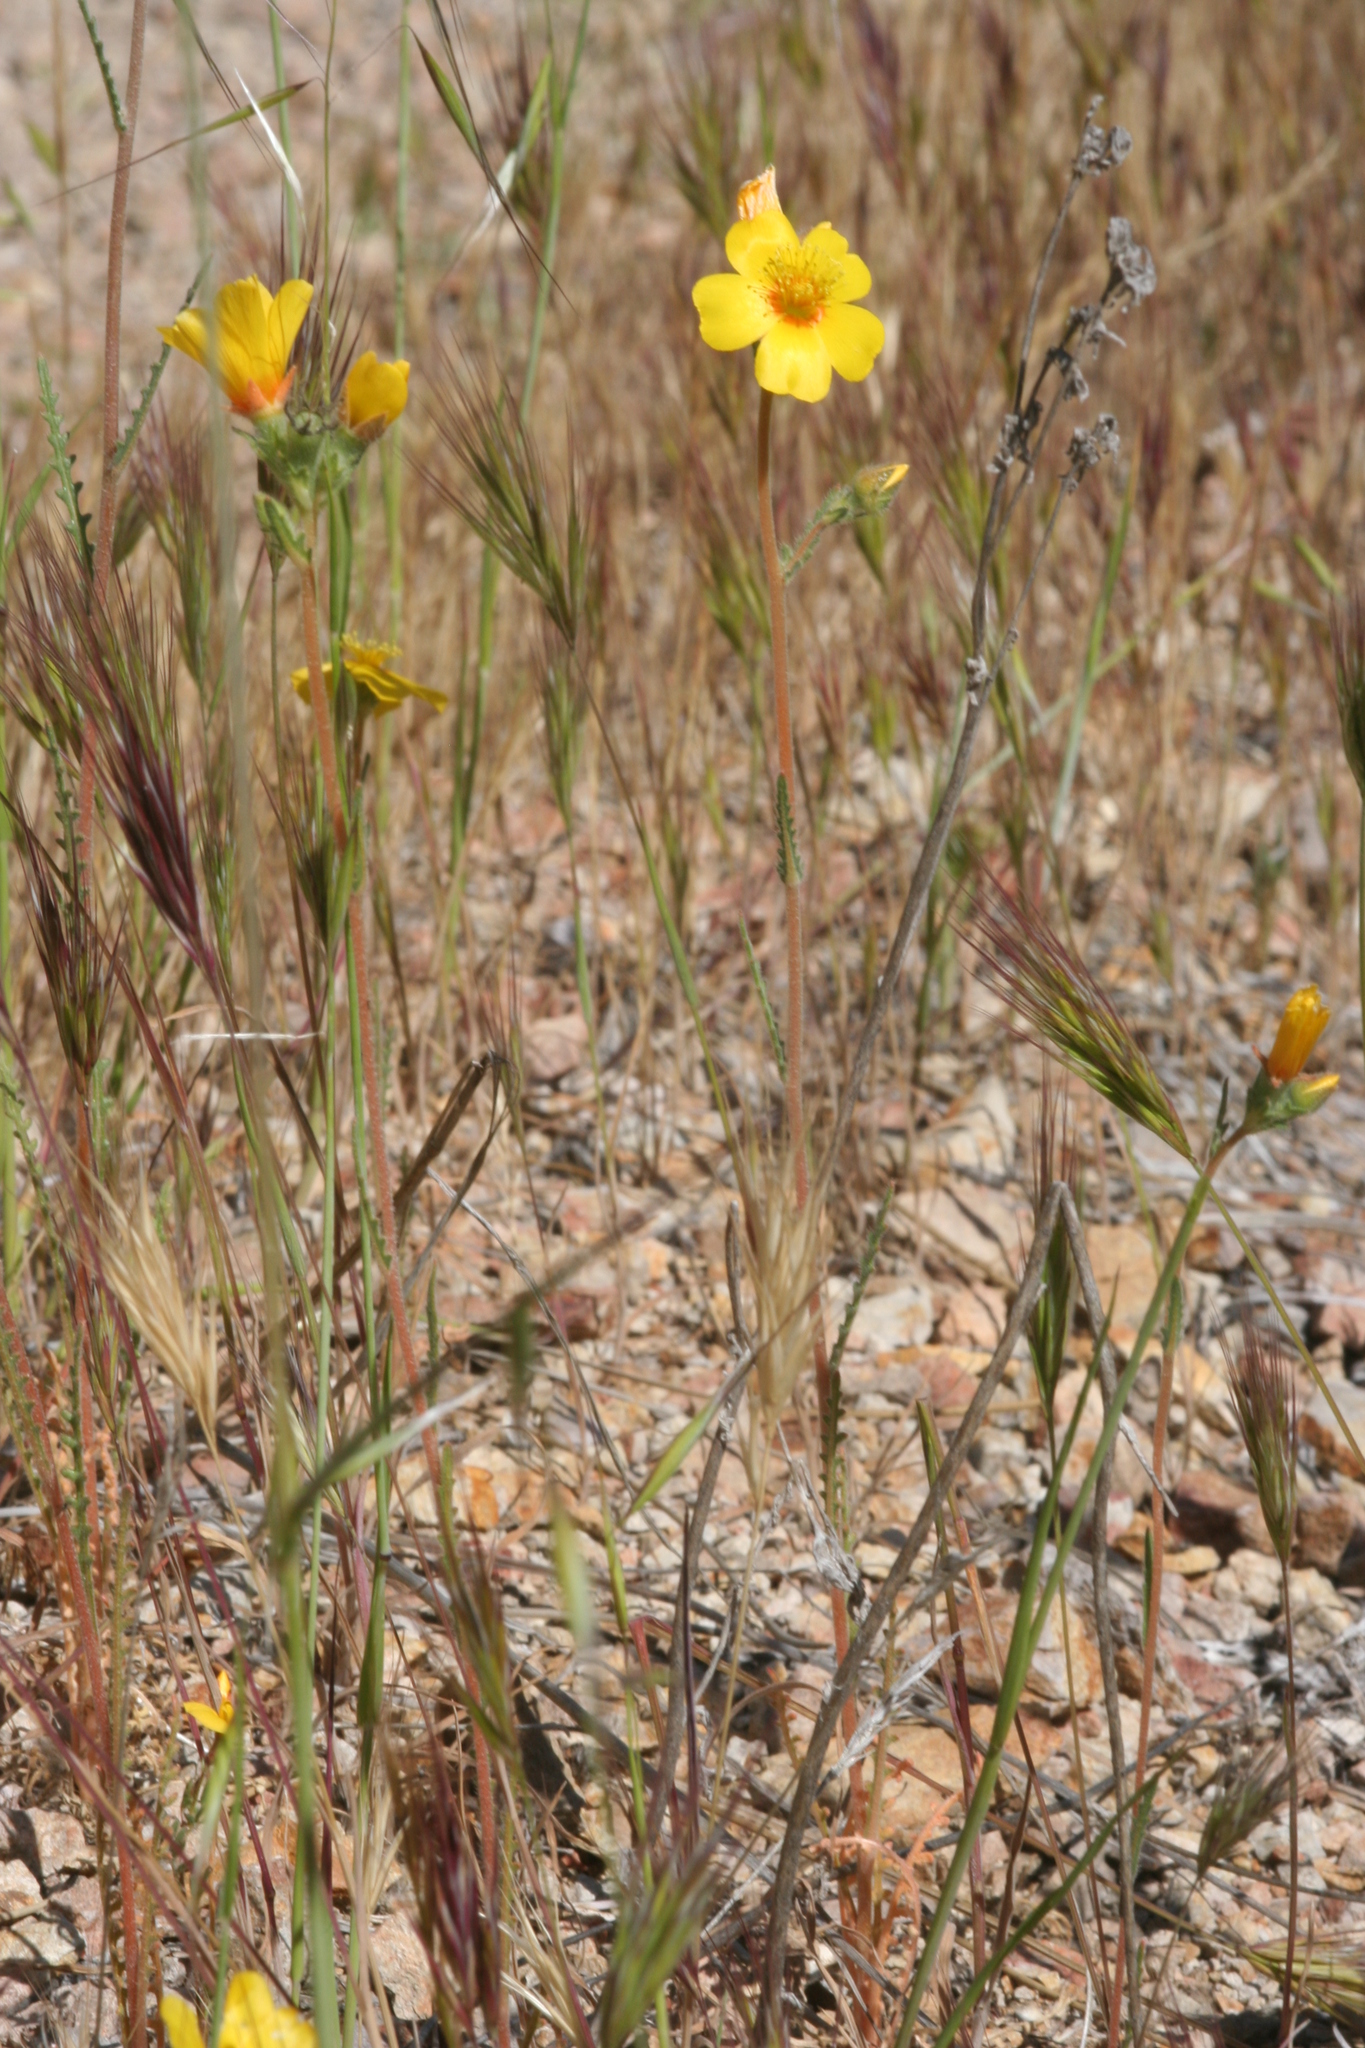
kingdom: Plantae
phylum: Tracheophyta
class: Magnoliopsida
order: Cornales
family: Loasaceae
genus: Mentzelia
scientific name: Mentzelia gracilenta
